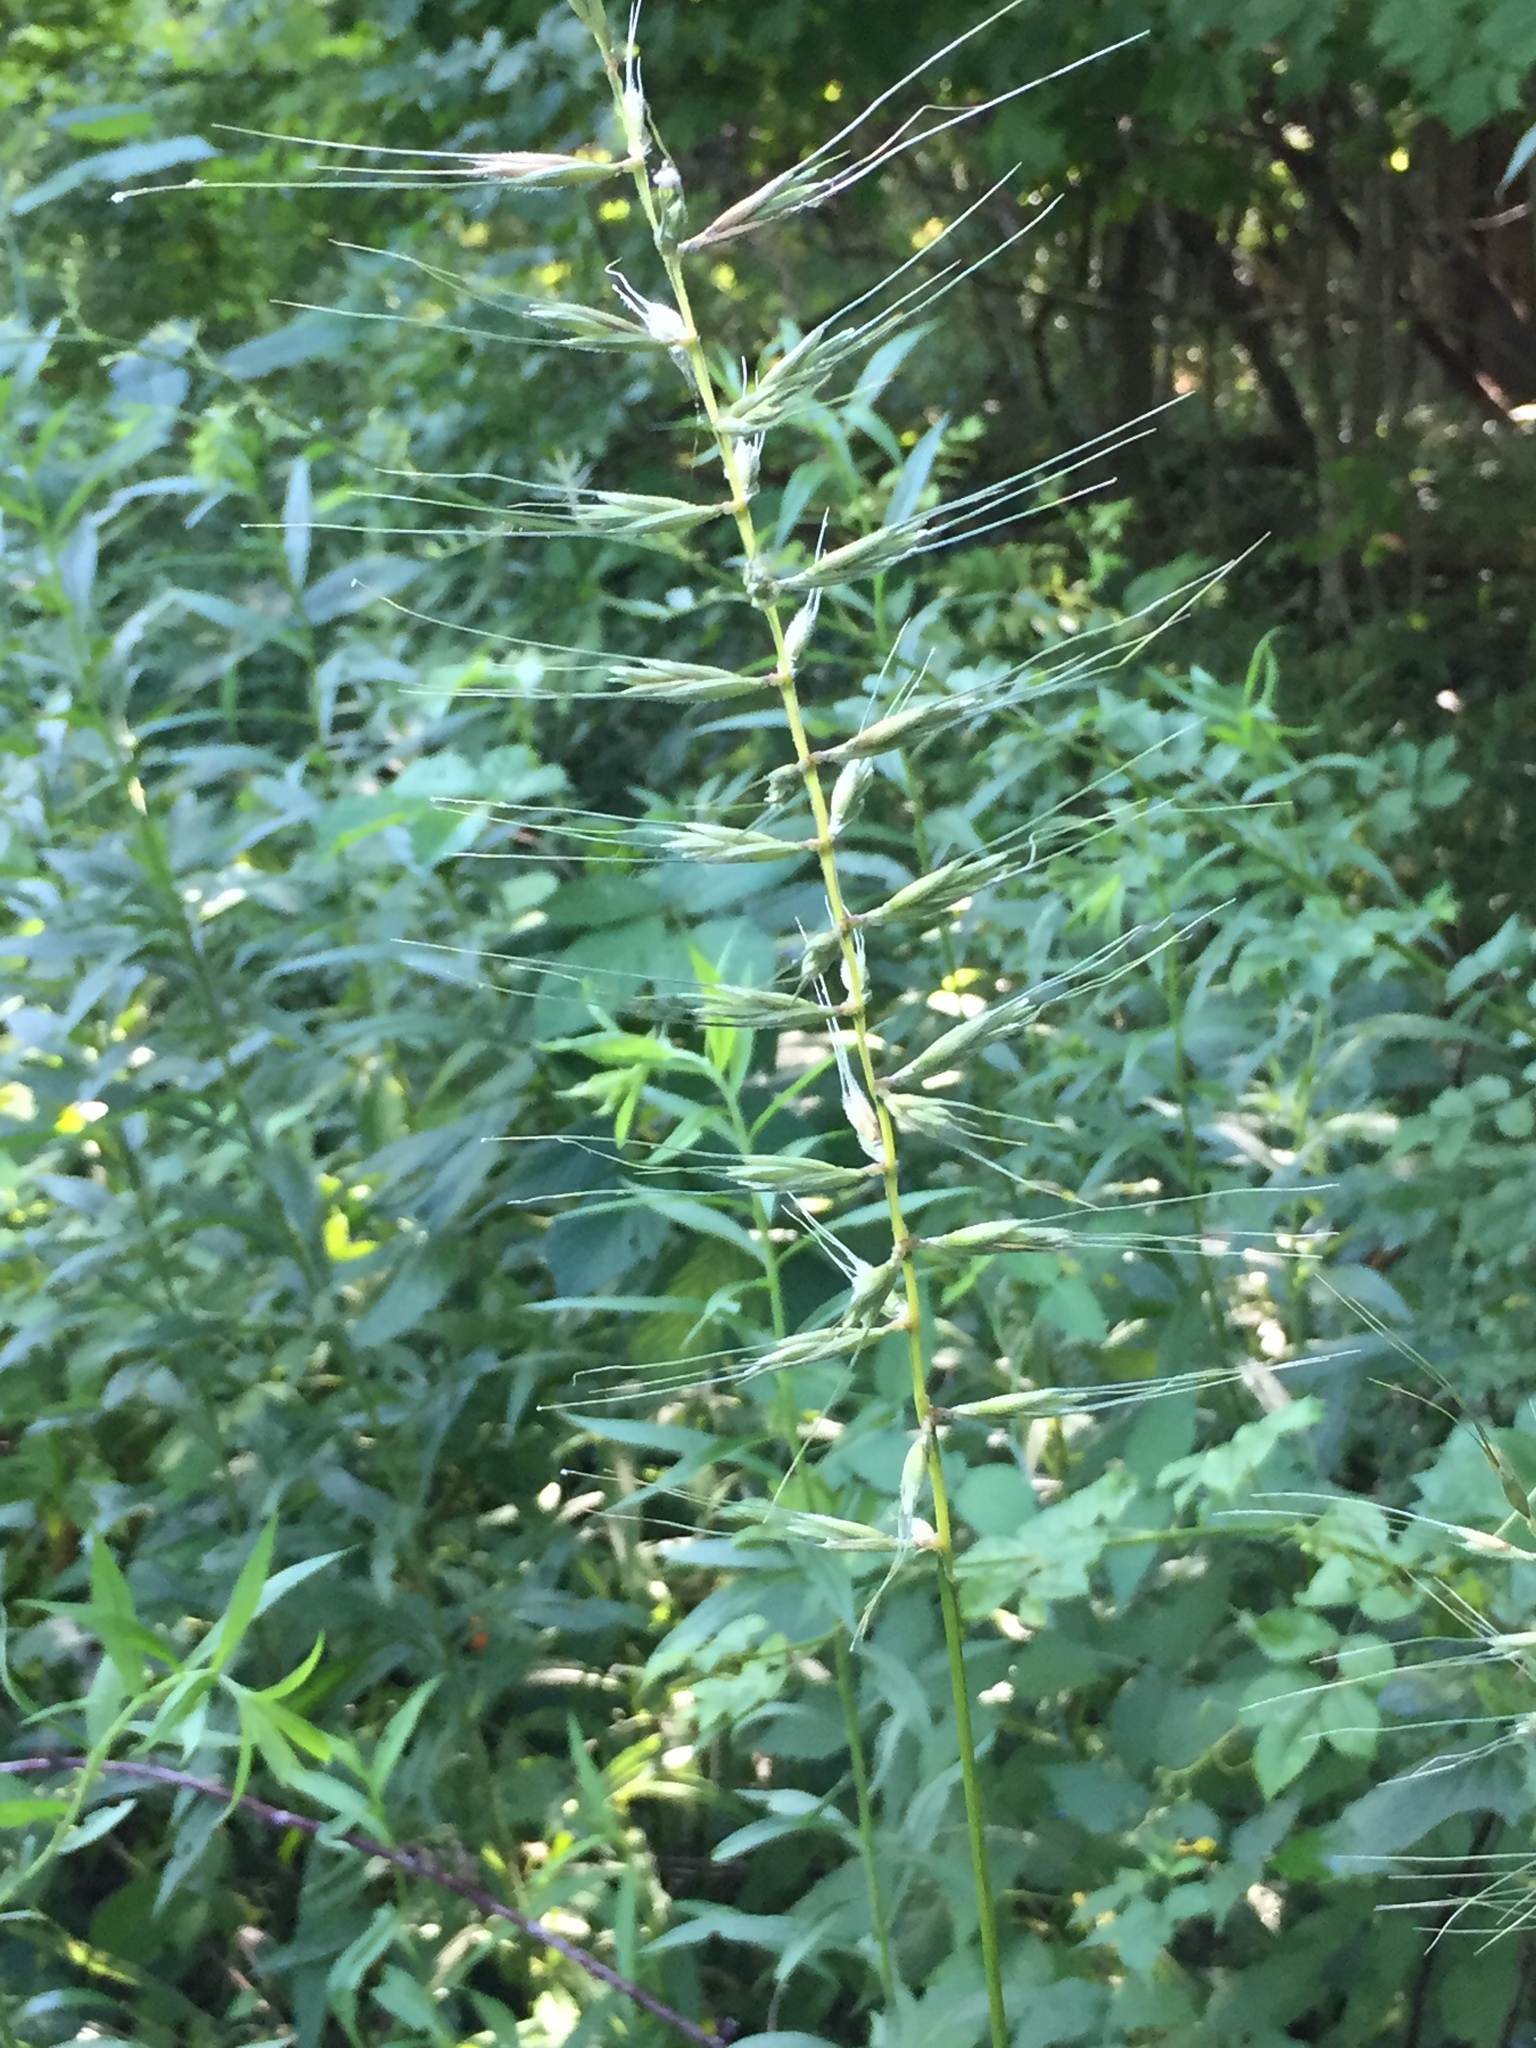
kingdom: Plantae
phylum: Tracheophyta
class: Liliopsida
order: Poales
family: Poaceae
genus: Elymus
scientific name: Elymus hystrix
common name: Bottlebrush grass
